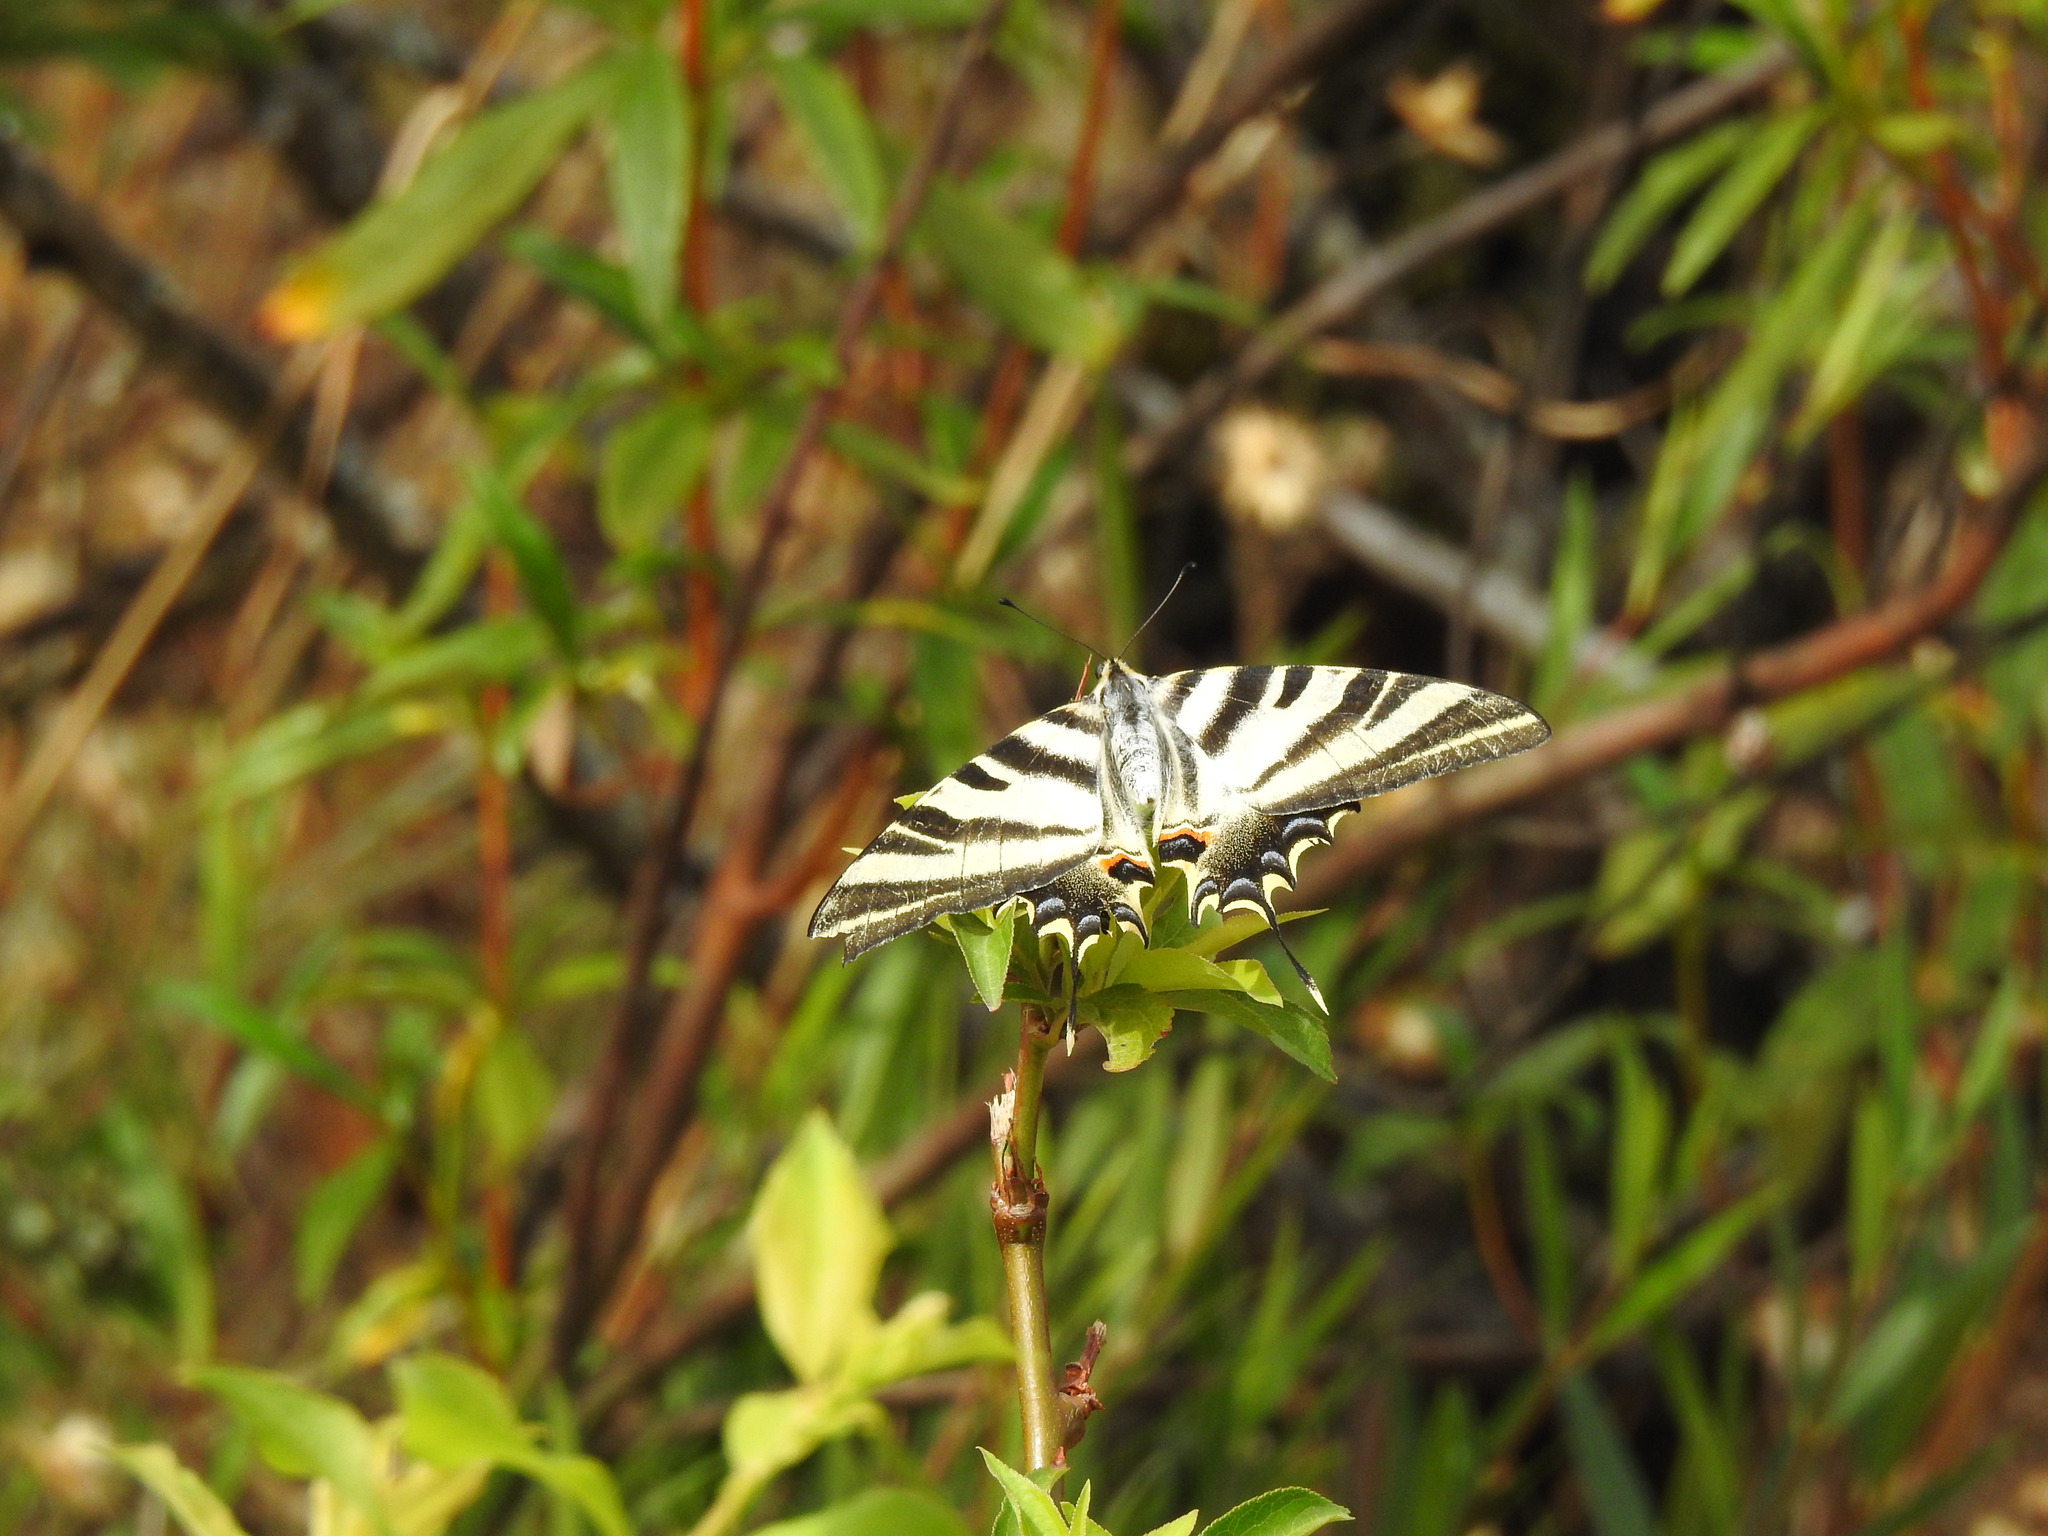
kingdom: Animalia
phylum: Arthropoda
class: Insecta
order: Lepidoptera
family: Papilionidae
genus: Iphiclides
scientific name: Iphiclides feisthamelii
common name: Iberian scarce swallowtail
